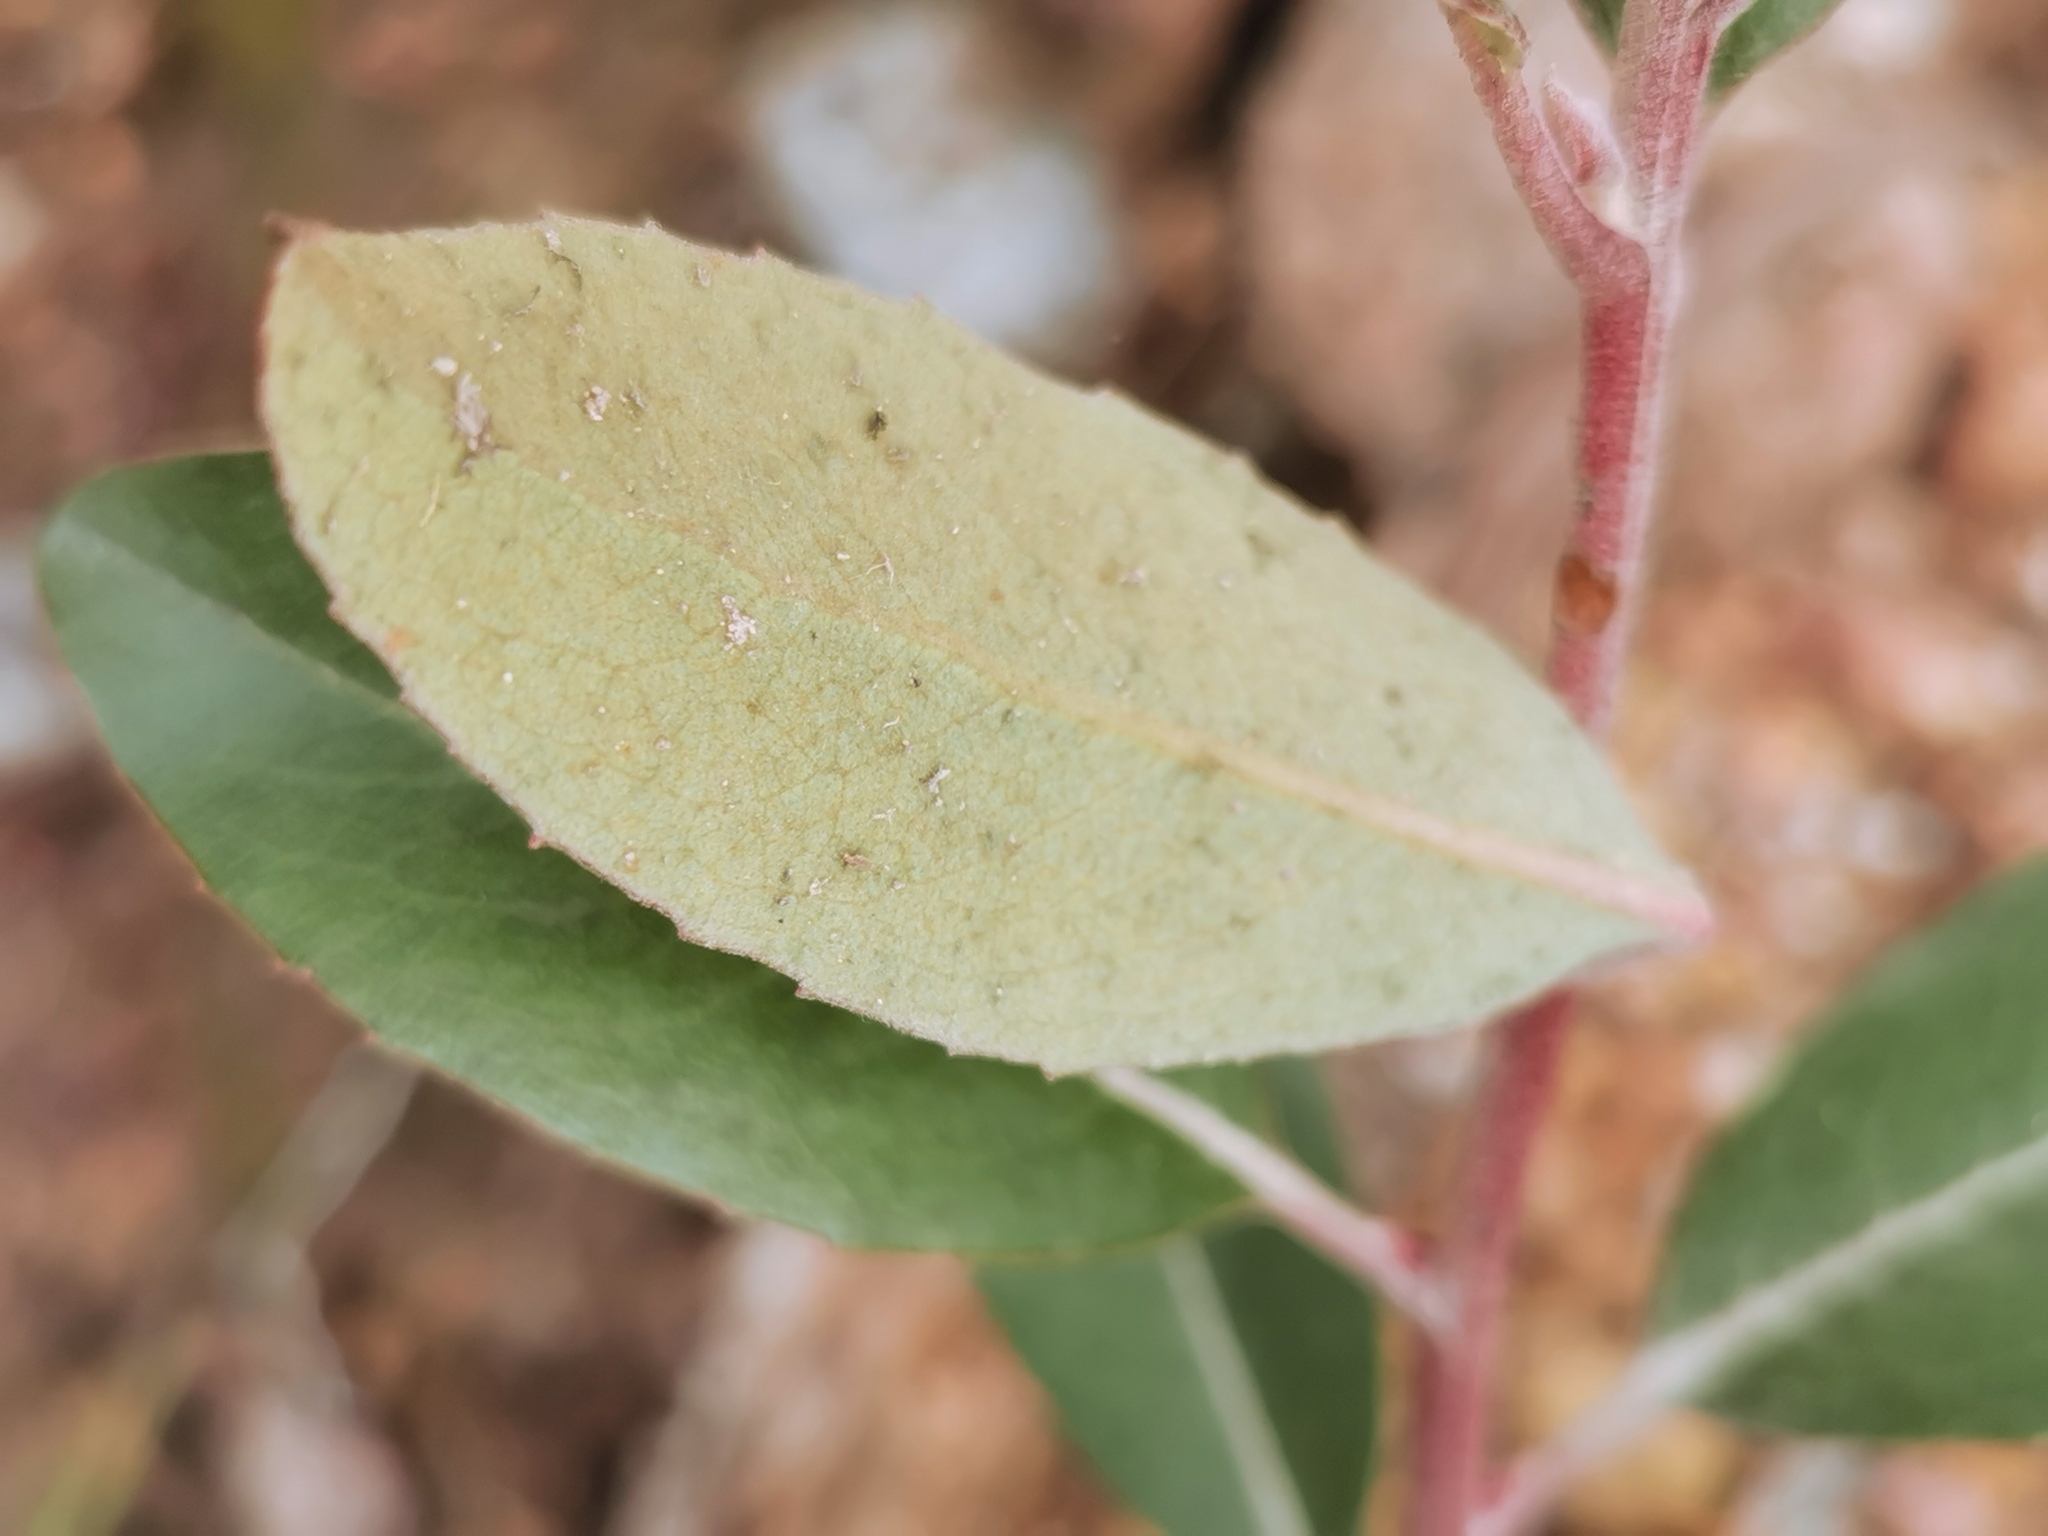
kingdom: Plantae
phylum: Tracheophyta
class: Magnoliopsida
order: Ericales
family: Ericaceae
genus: Arbutus
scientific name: Arbutus mollis
